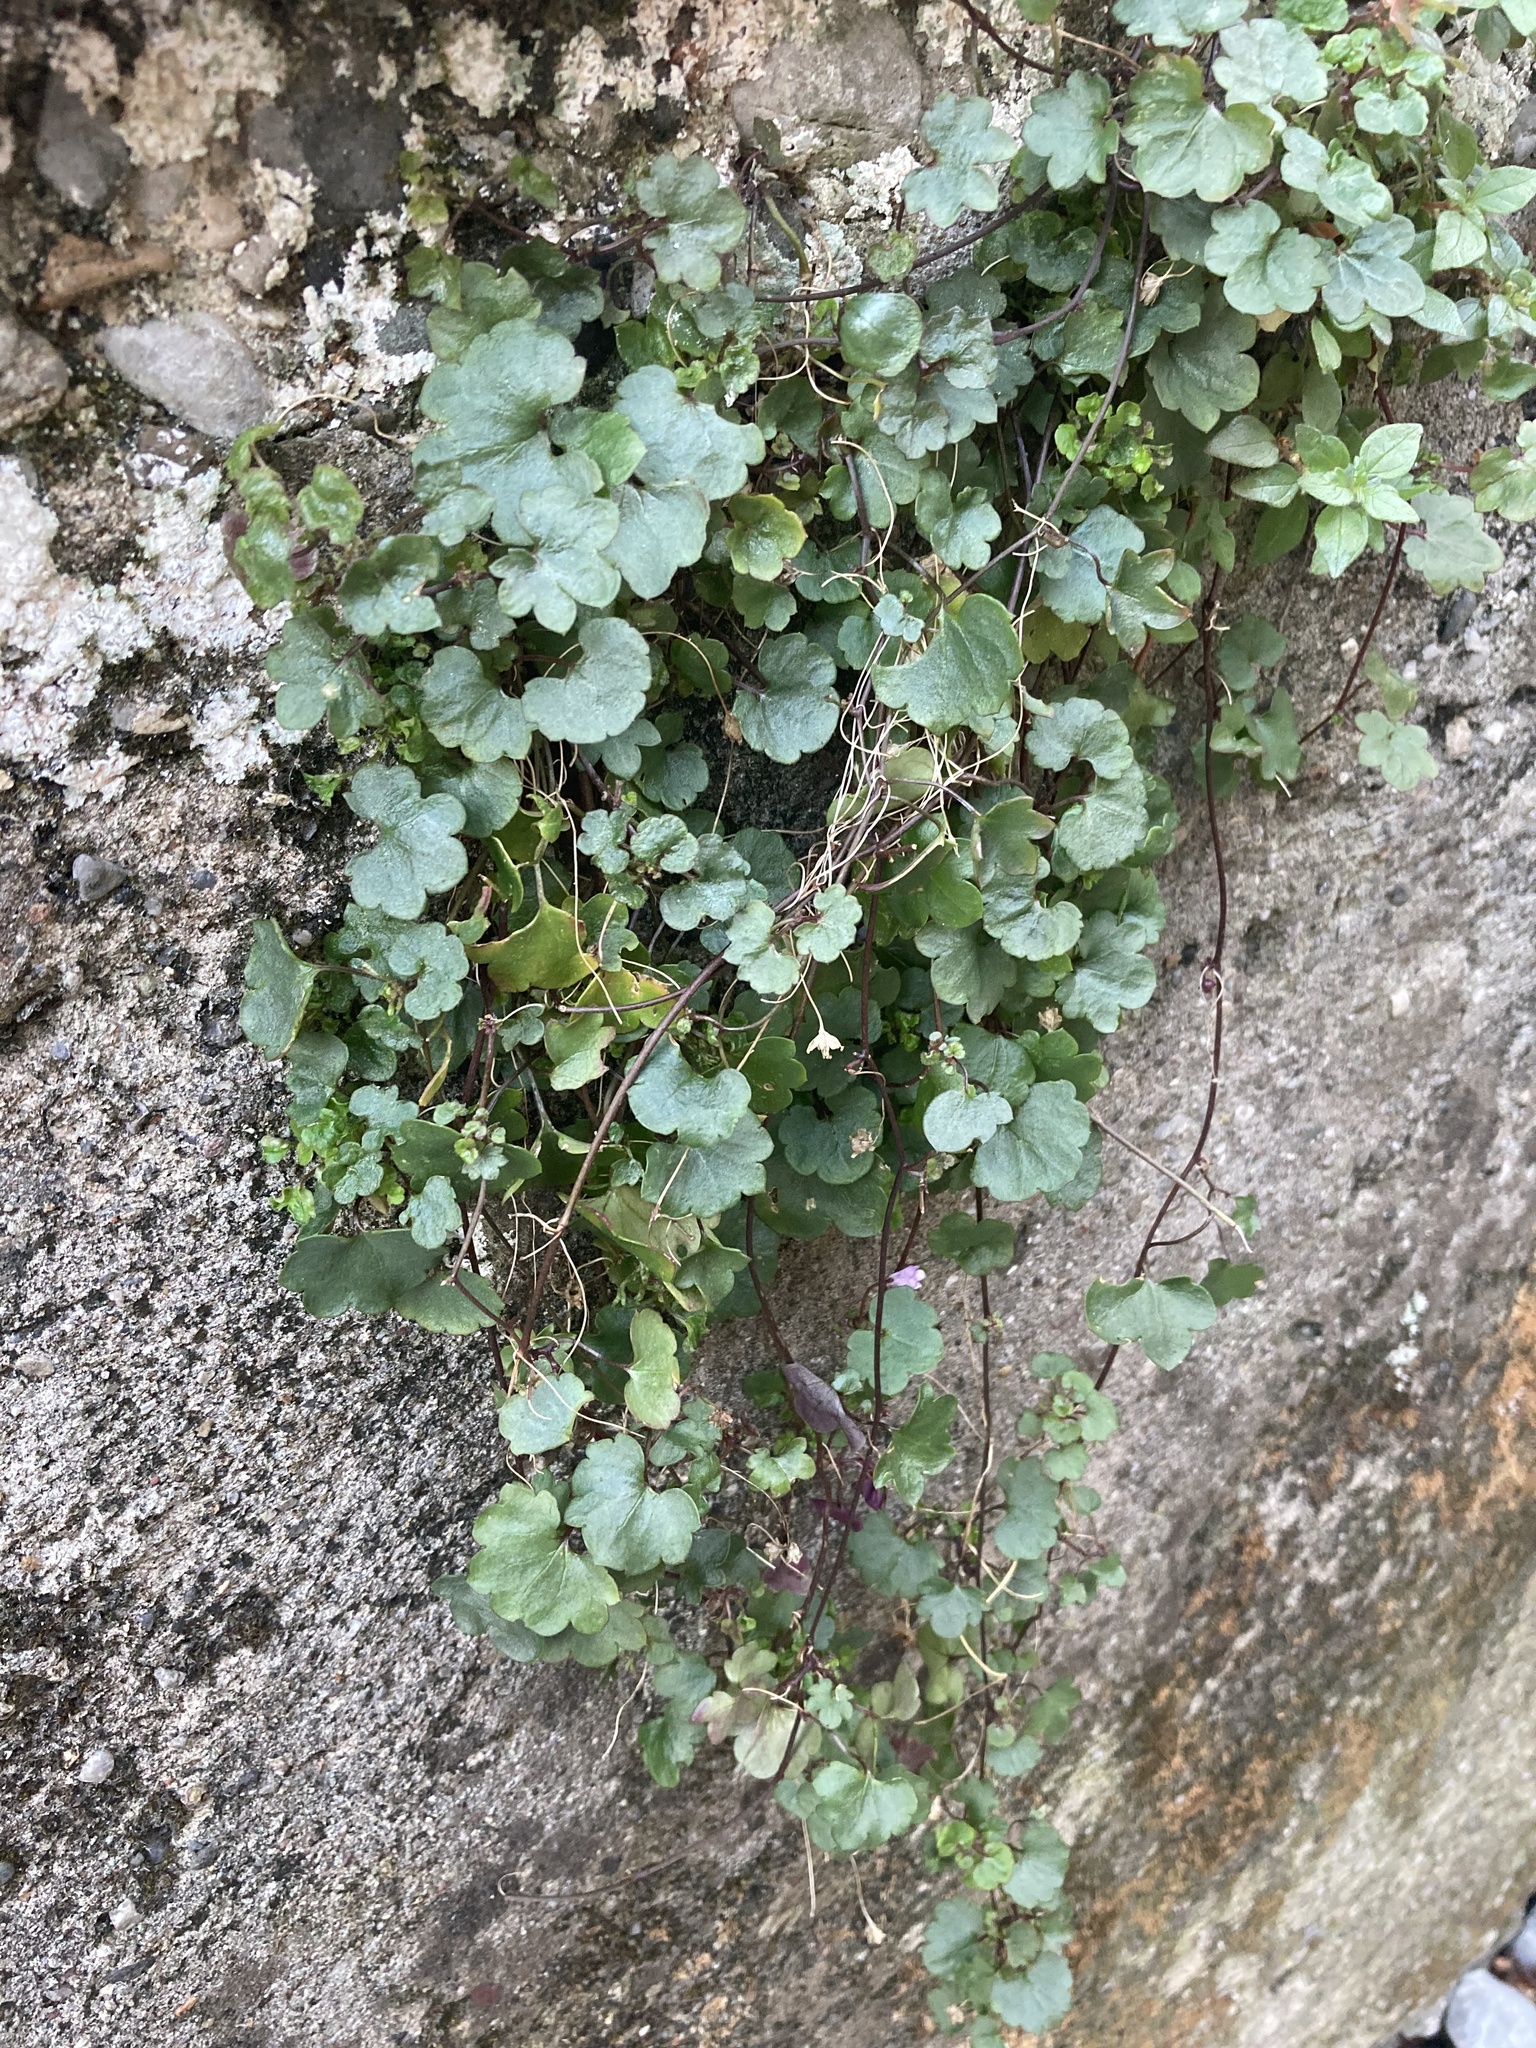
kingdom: Plantae
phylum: Tracheophyta
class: Magnoliopsida
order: Lamiales
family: Plantaginaceae
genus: Cymbalaria
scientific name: Cymbalaria muralis
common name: Ivy-leaved toadflax
